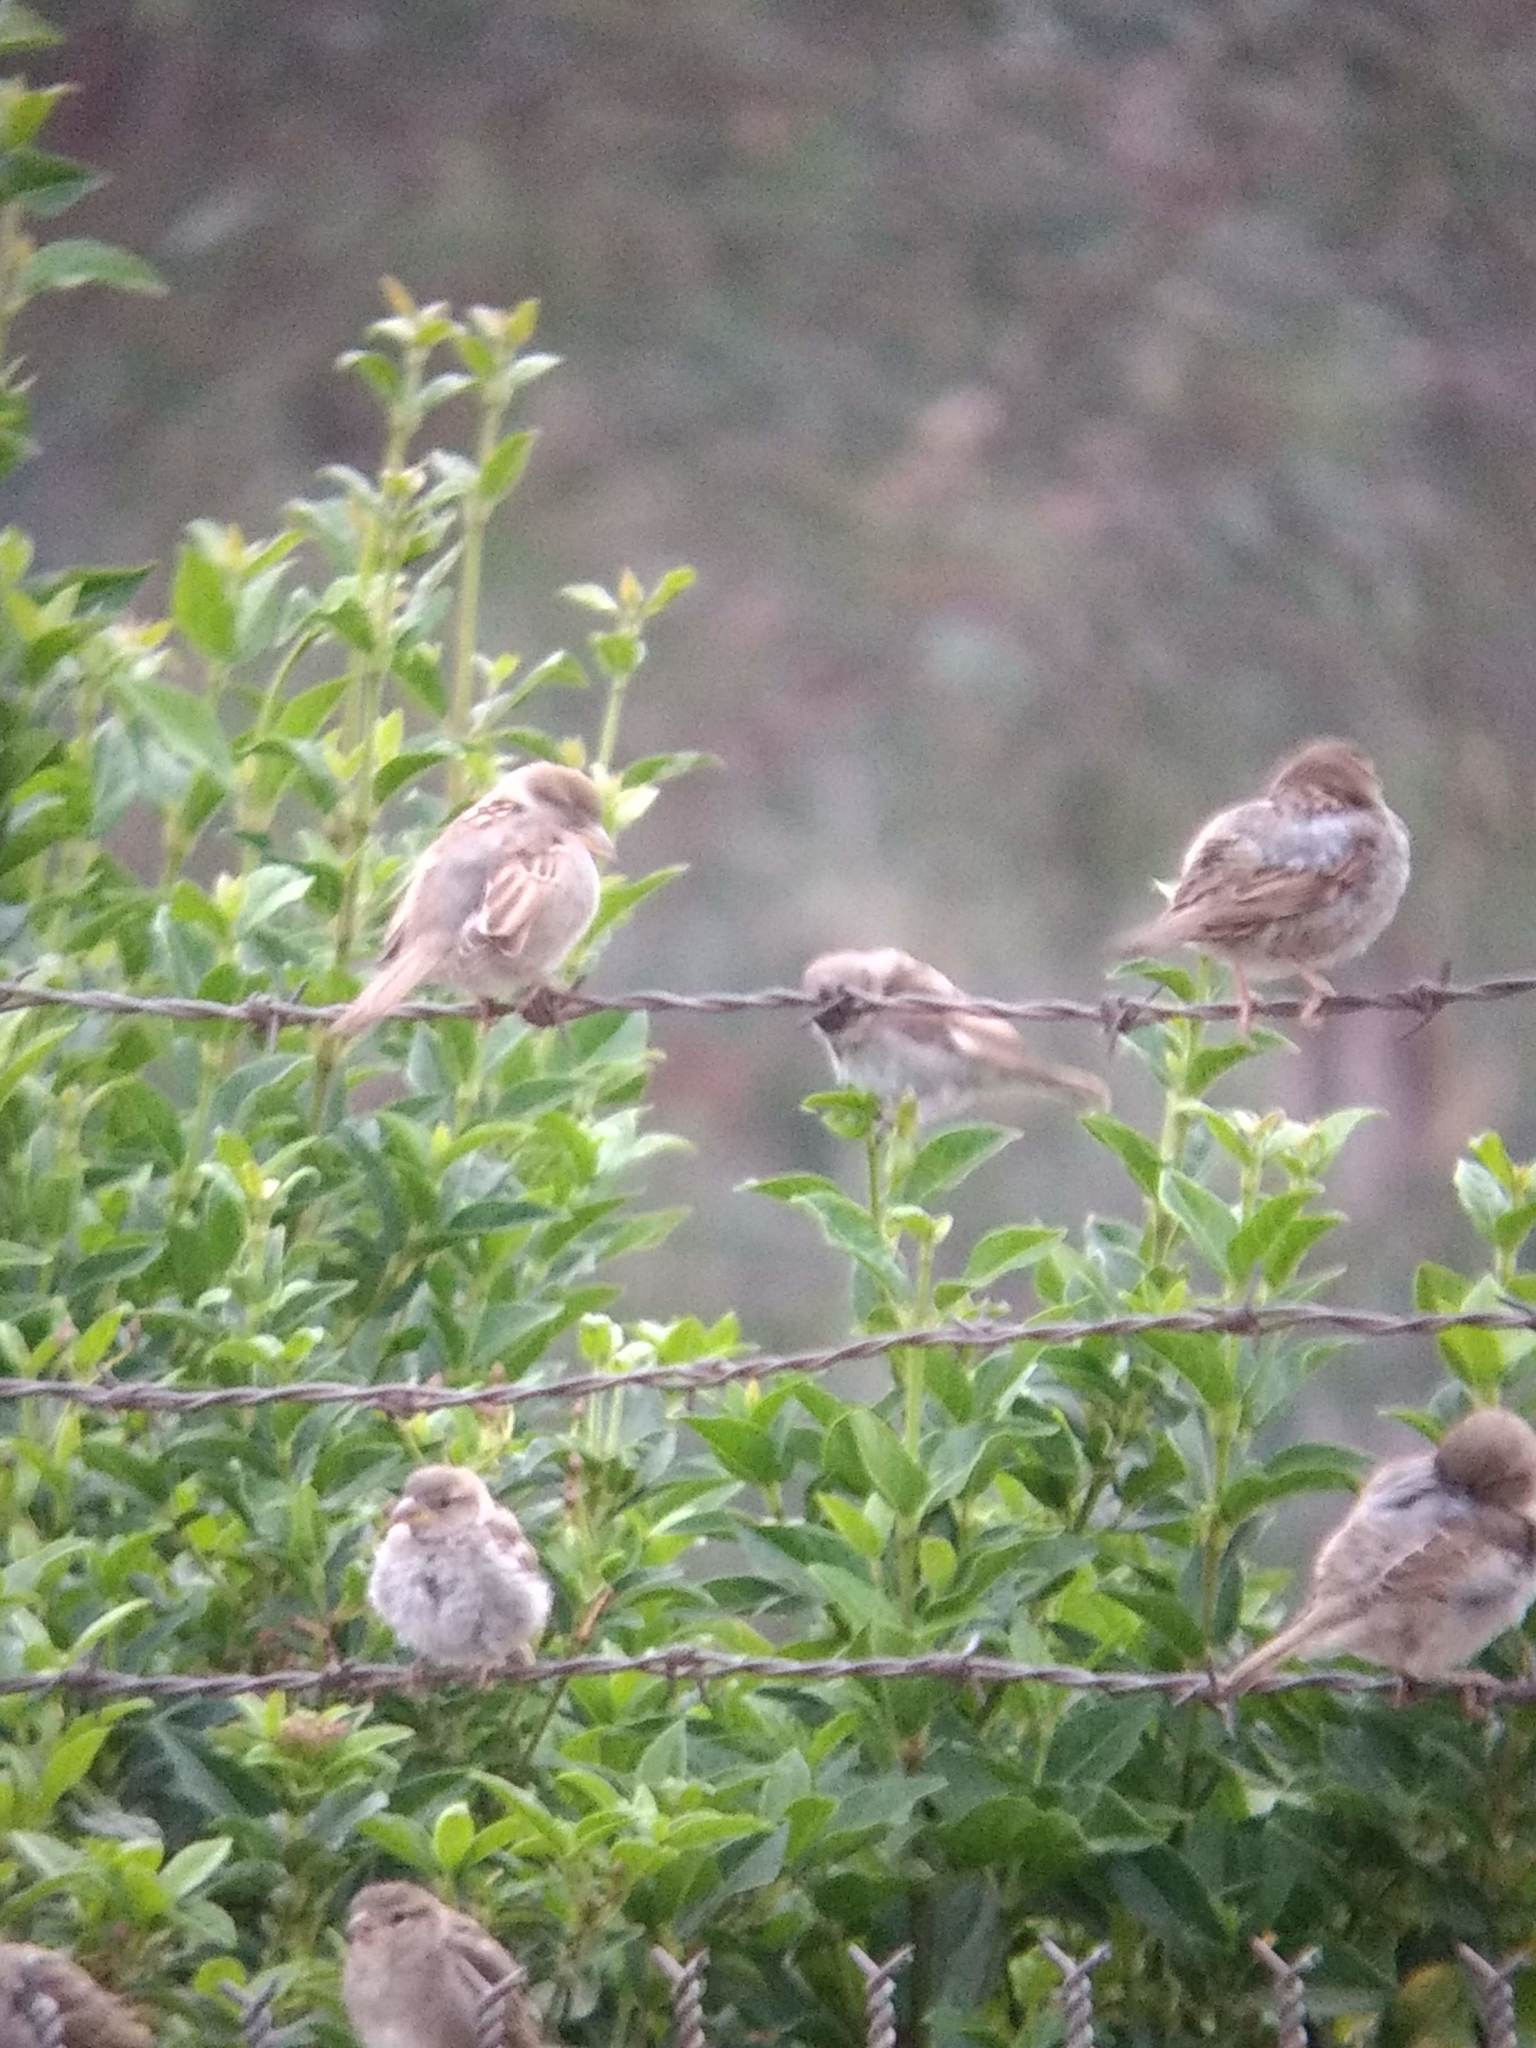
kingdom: Animalia
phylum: Chordata
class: Aves
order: Passeriformes
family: Passeridae
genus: Passer
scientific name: Passer domesticus
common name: House sparrow
